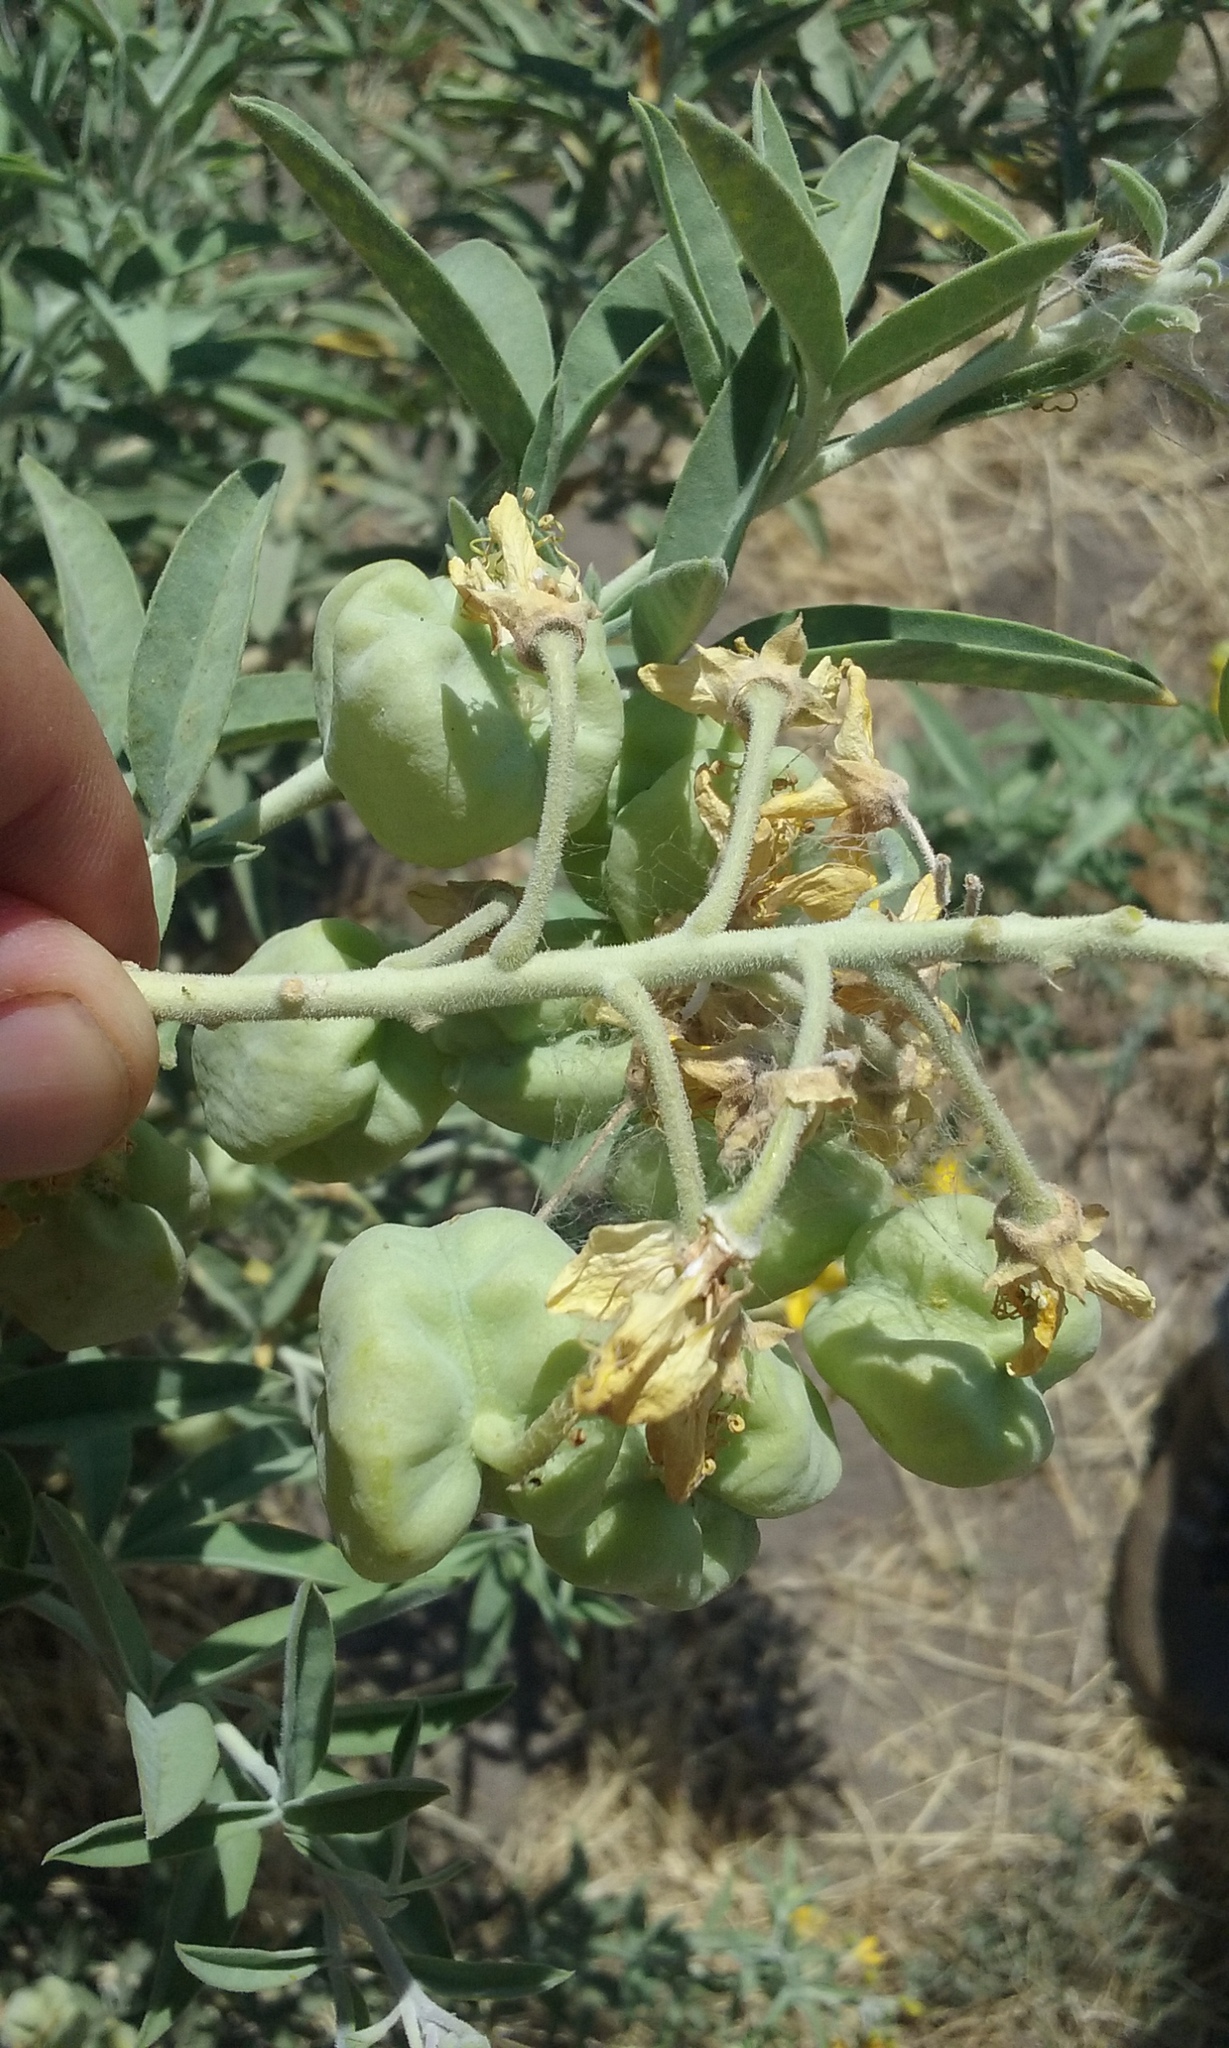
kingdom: Plantae
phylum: Tracheophyta
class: Magnoliopsida
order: Brassicales
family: Cleomaceae
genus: Cleomella
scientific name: Cleomella arborea
